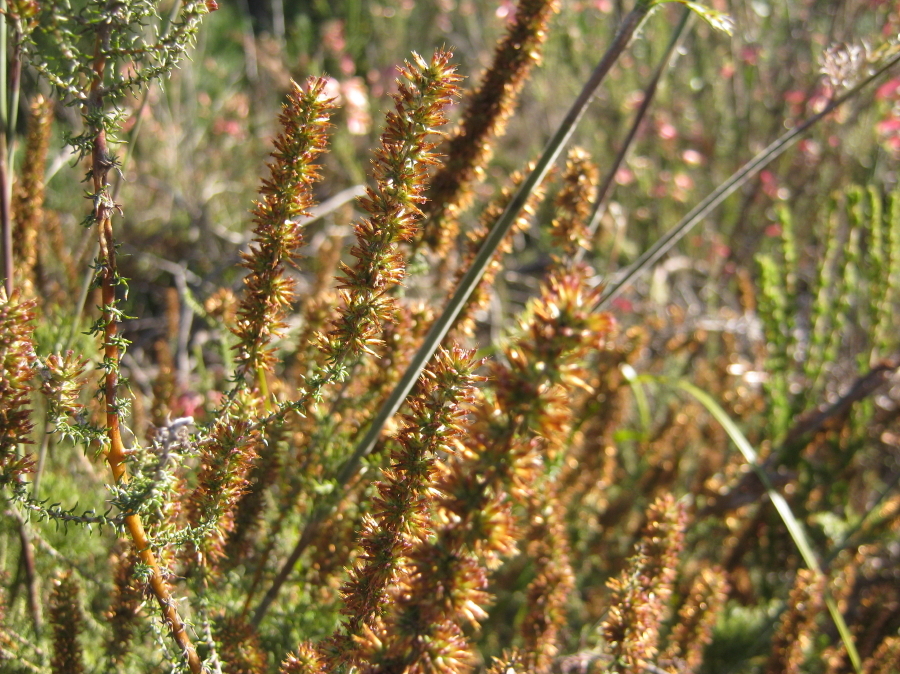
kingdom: Plantae
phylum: Tracheophyta
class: Magnoliopsida
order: Asterales
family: Asteraceae
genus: Seriphium
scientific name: Seriphium plumosum
